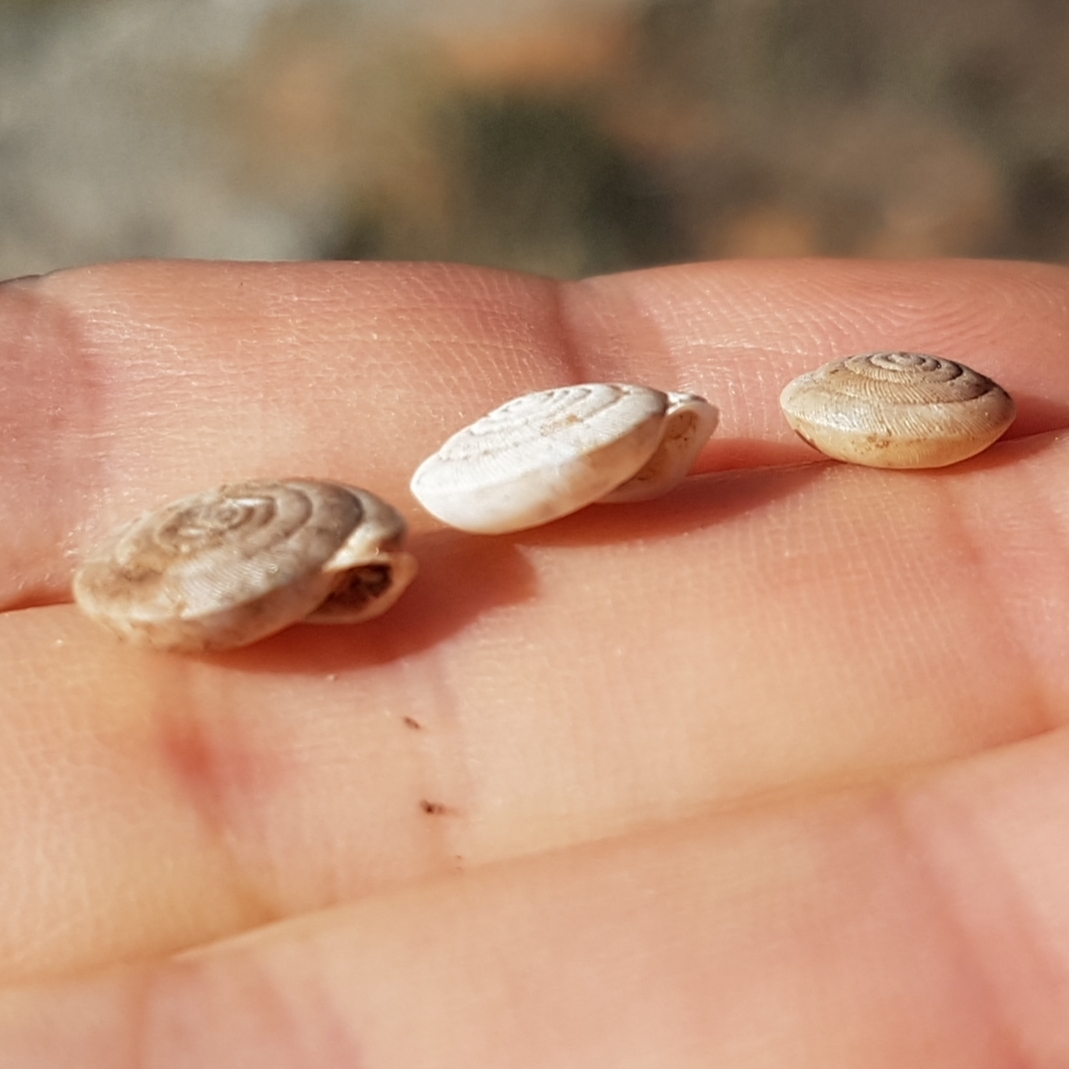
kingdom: Animalia
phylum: Mollusca
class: Gastropoda
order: Stylommatophora
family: Trissexodontidae
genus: Oestophora
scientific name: Oestophora barbula
